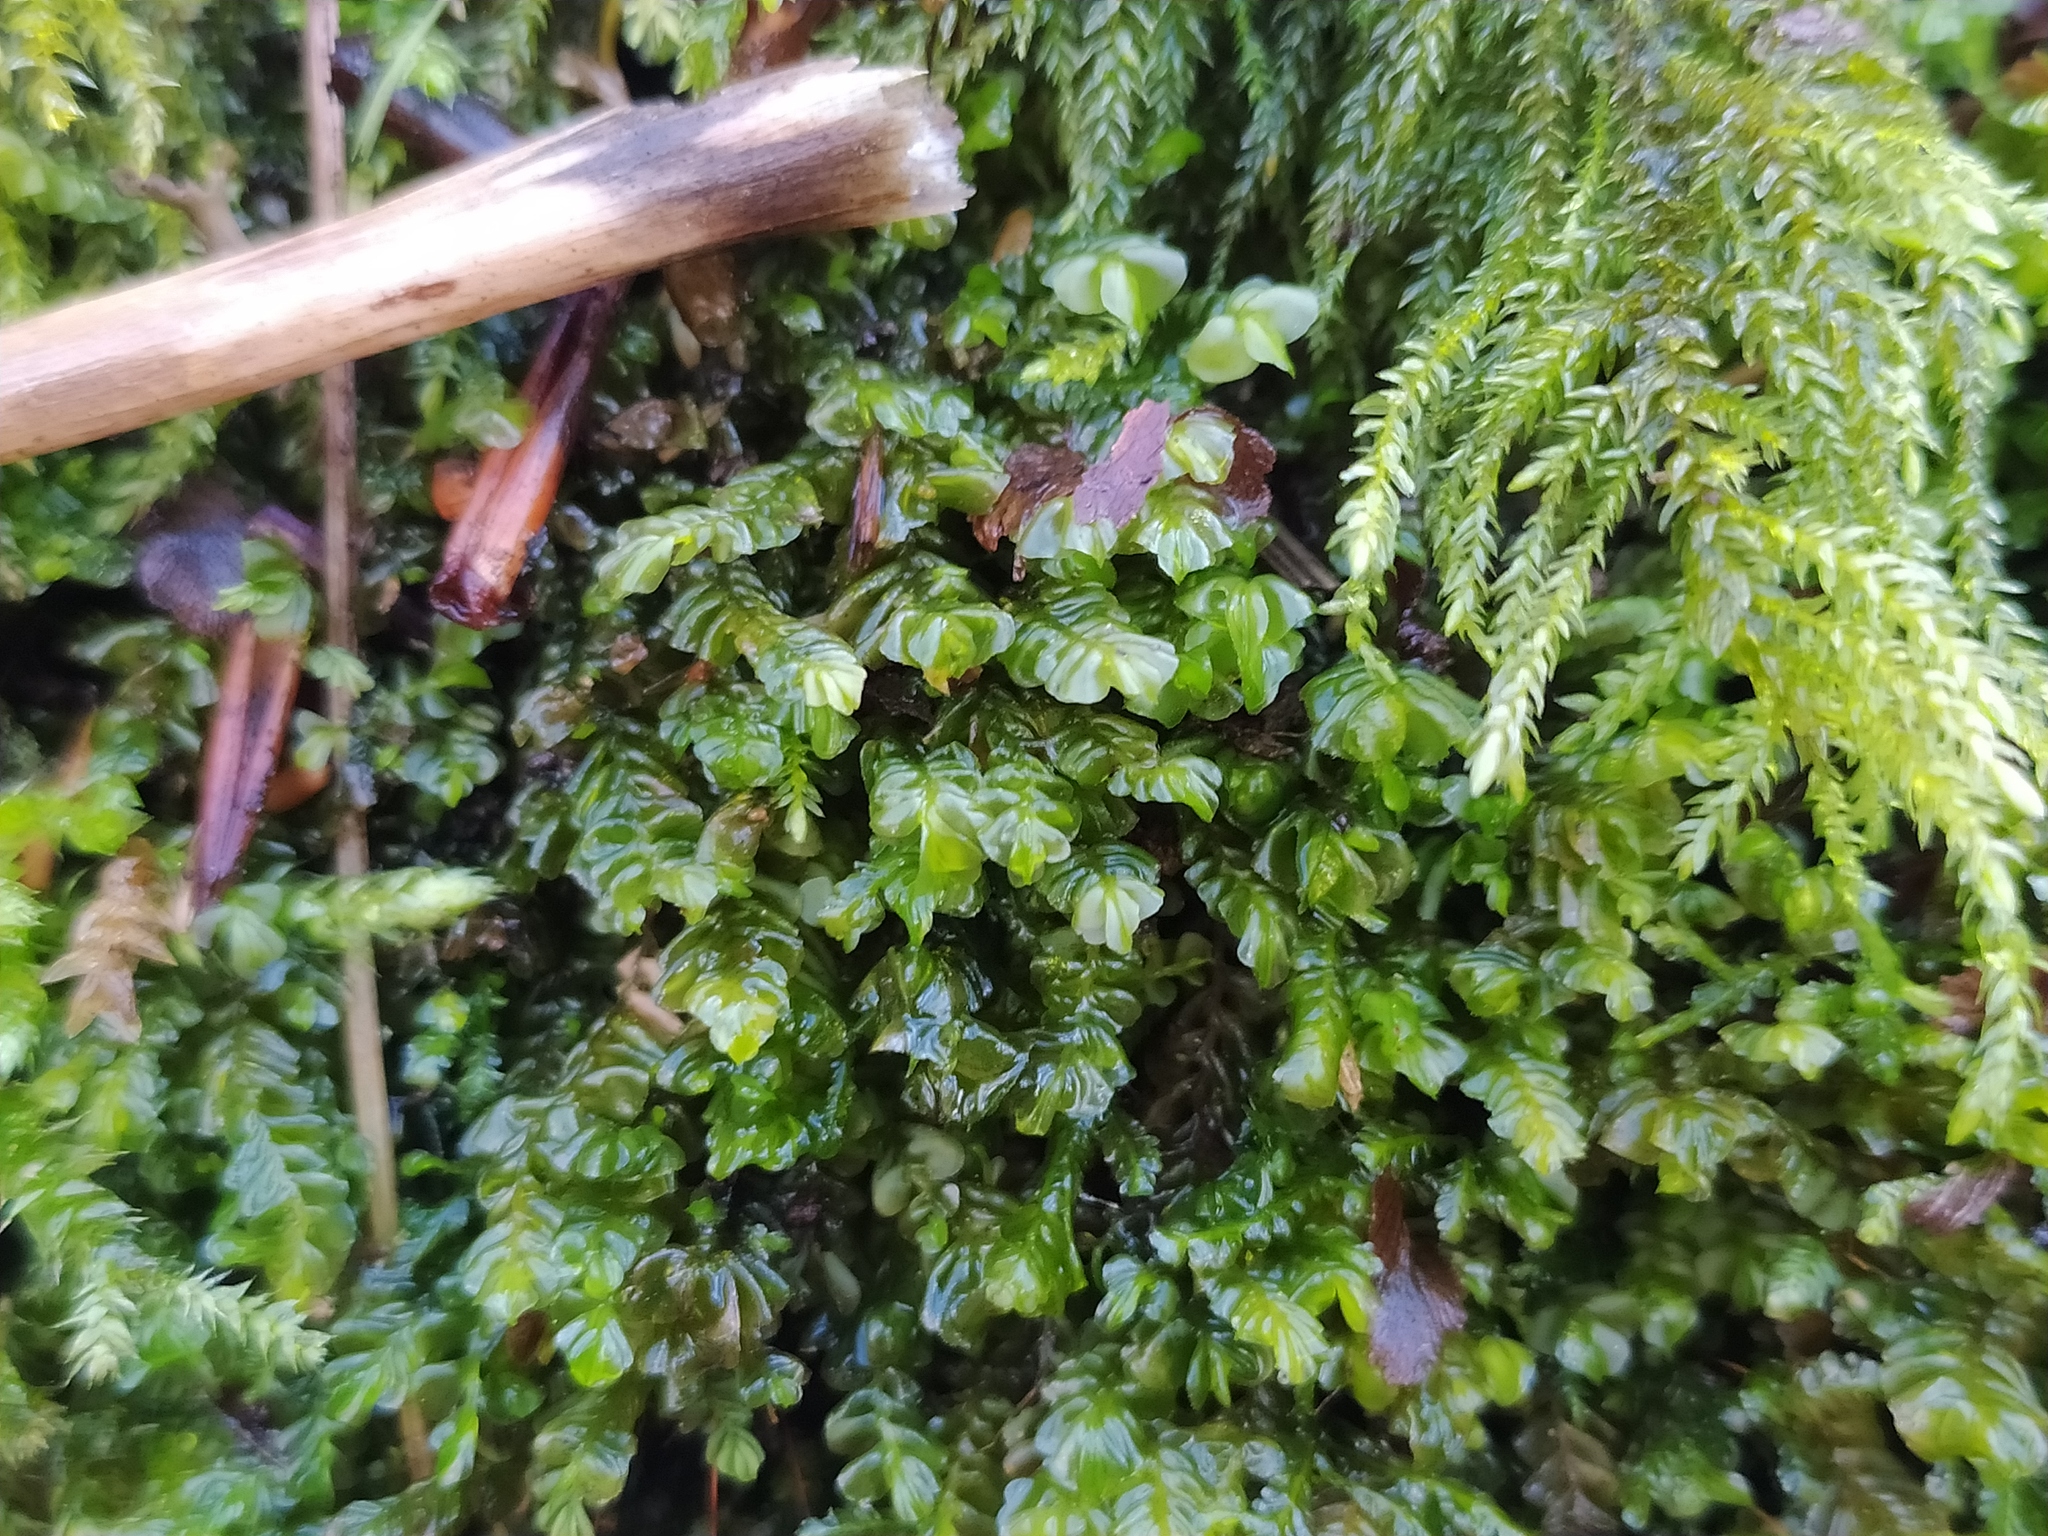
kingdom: Plantae
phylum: Marchantiophyta
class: Jungermanniopsida
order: Jungermanniales
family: Plagiochilaceae
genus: Plagiochila
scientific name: Plagiochila asplenioides
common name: Greater featherwort
